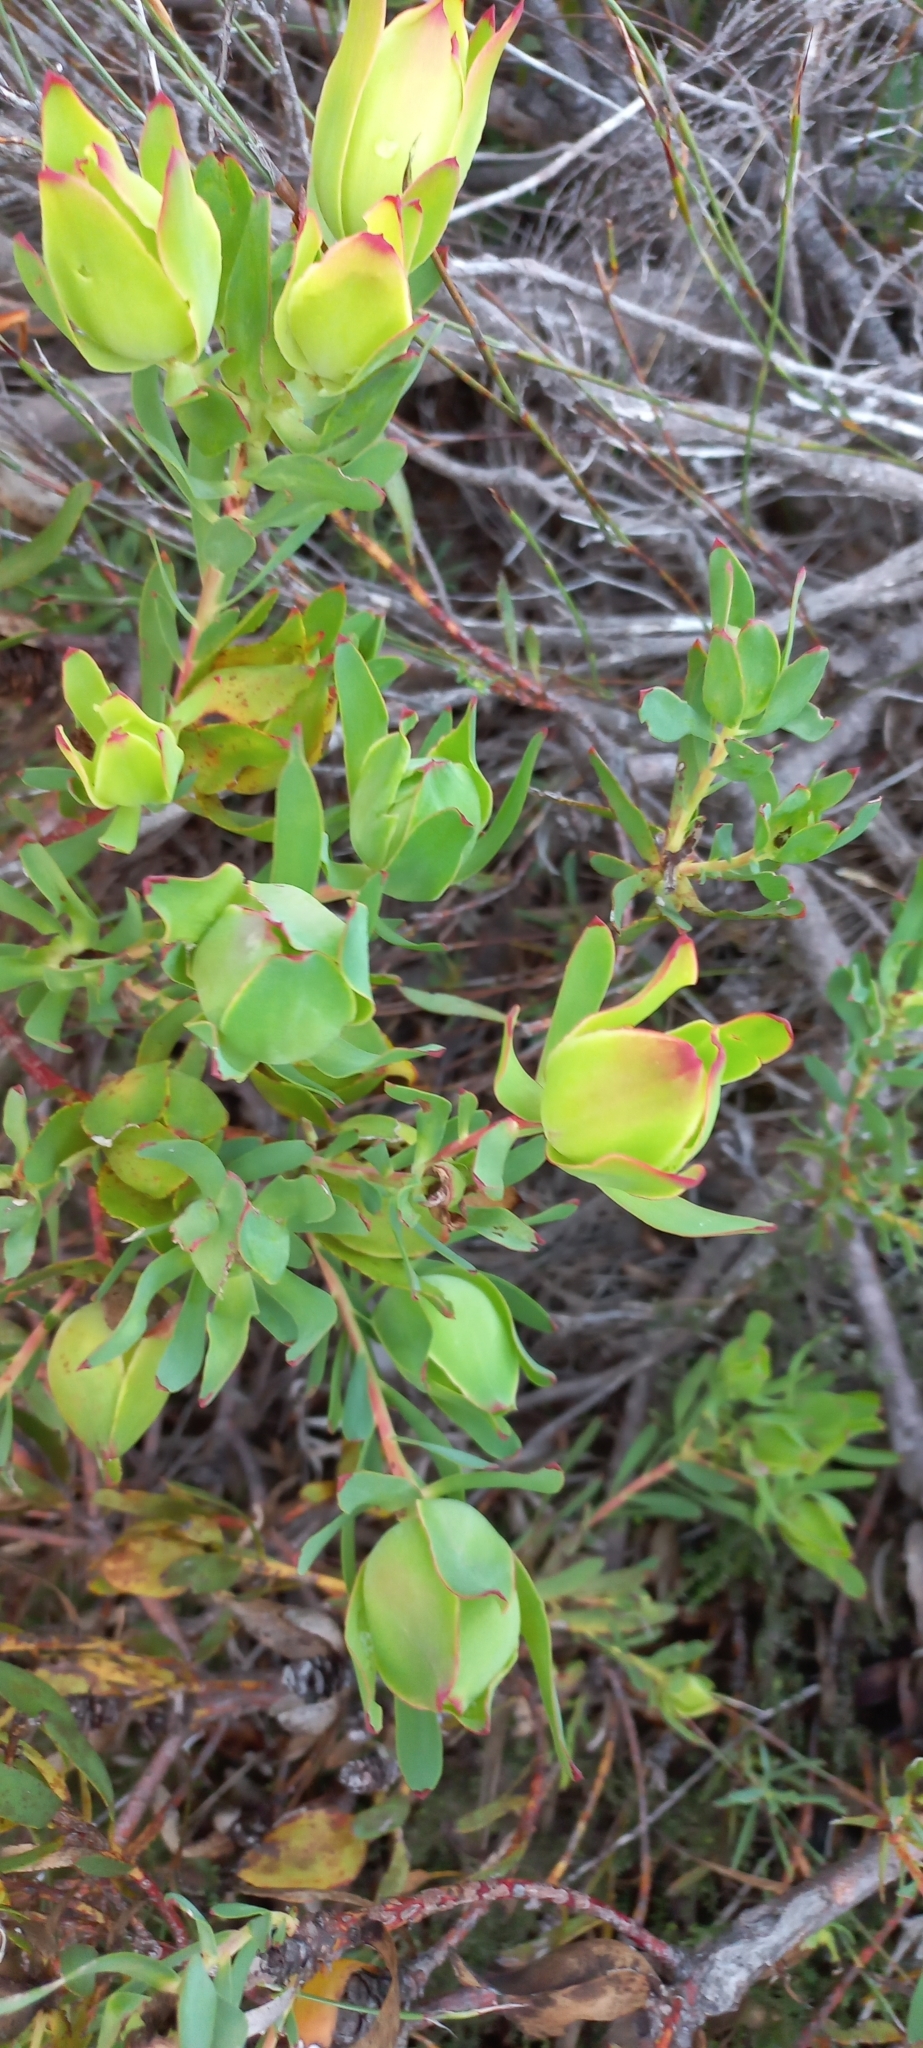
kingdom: Plantae
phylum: Tracheophyta
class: Magnoliopsida
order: Proteales
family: Proteaceae
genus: Leucadendron
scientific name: Leucadendron salignum
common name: Common sunshine conebush
